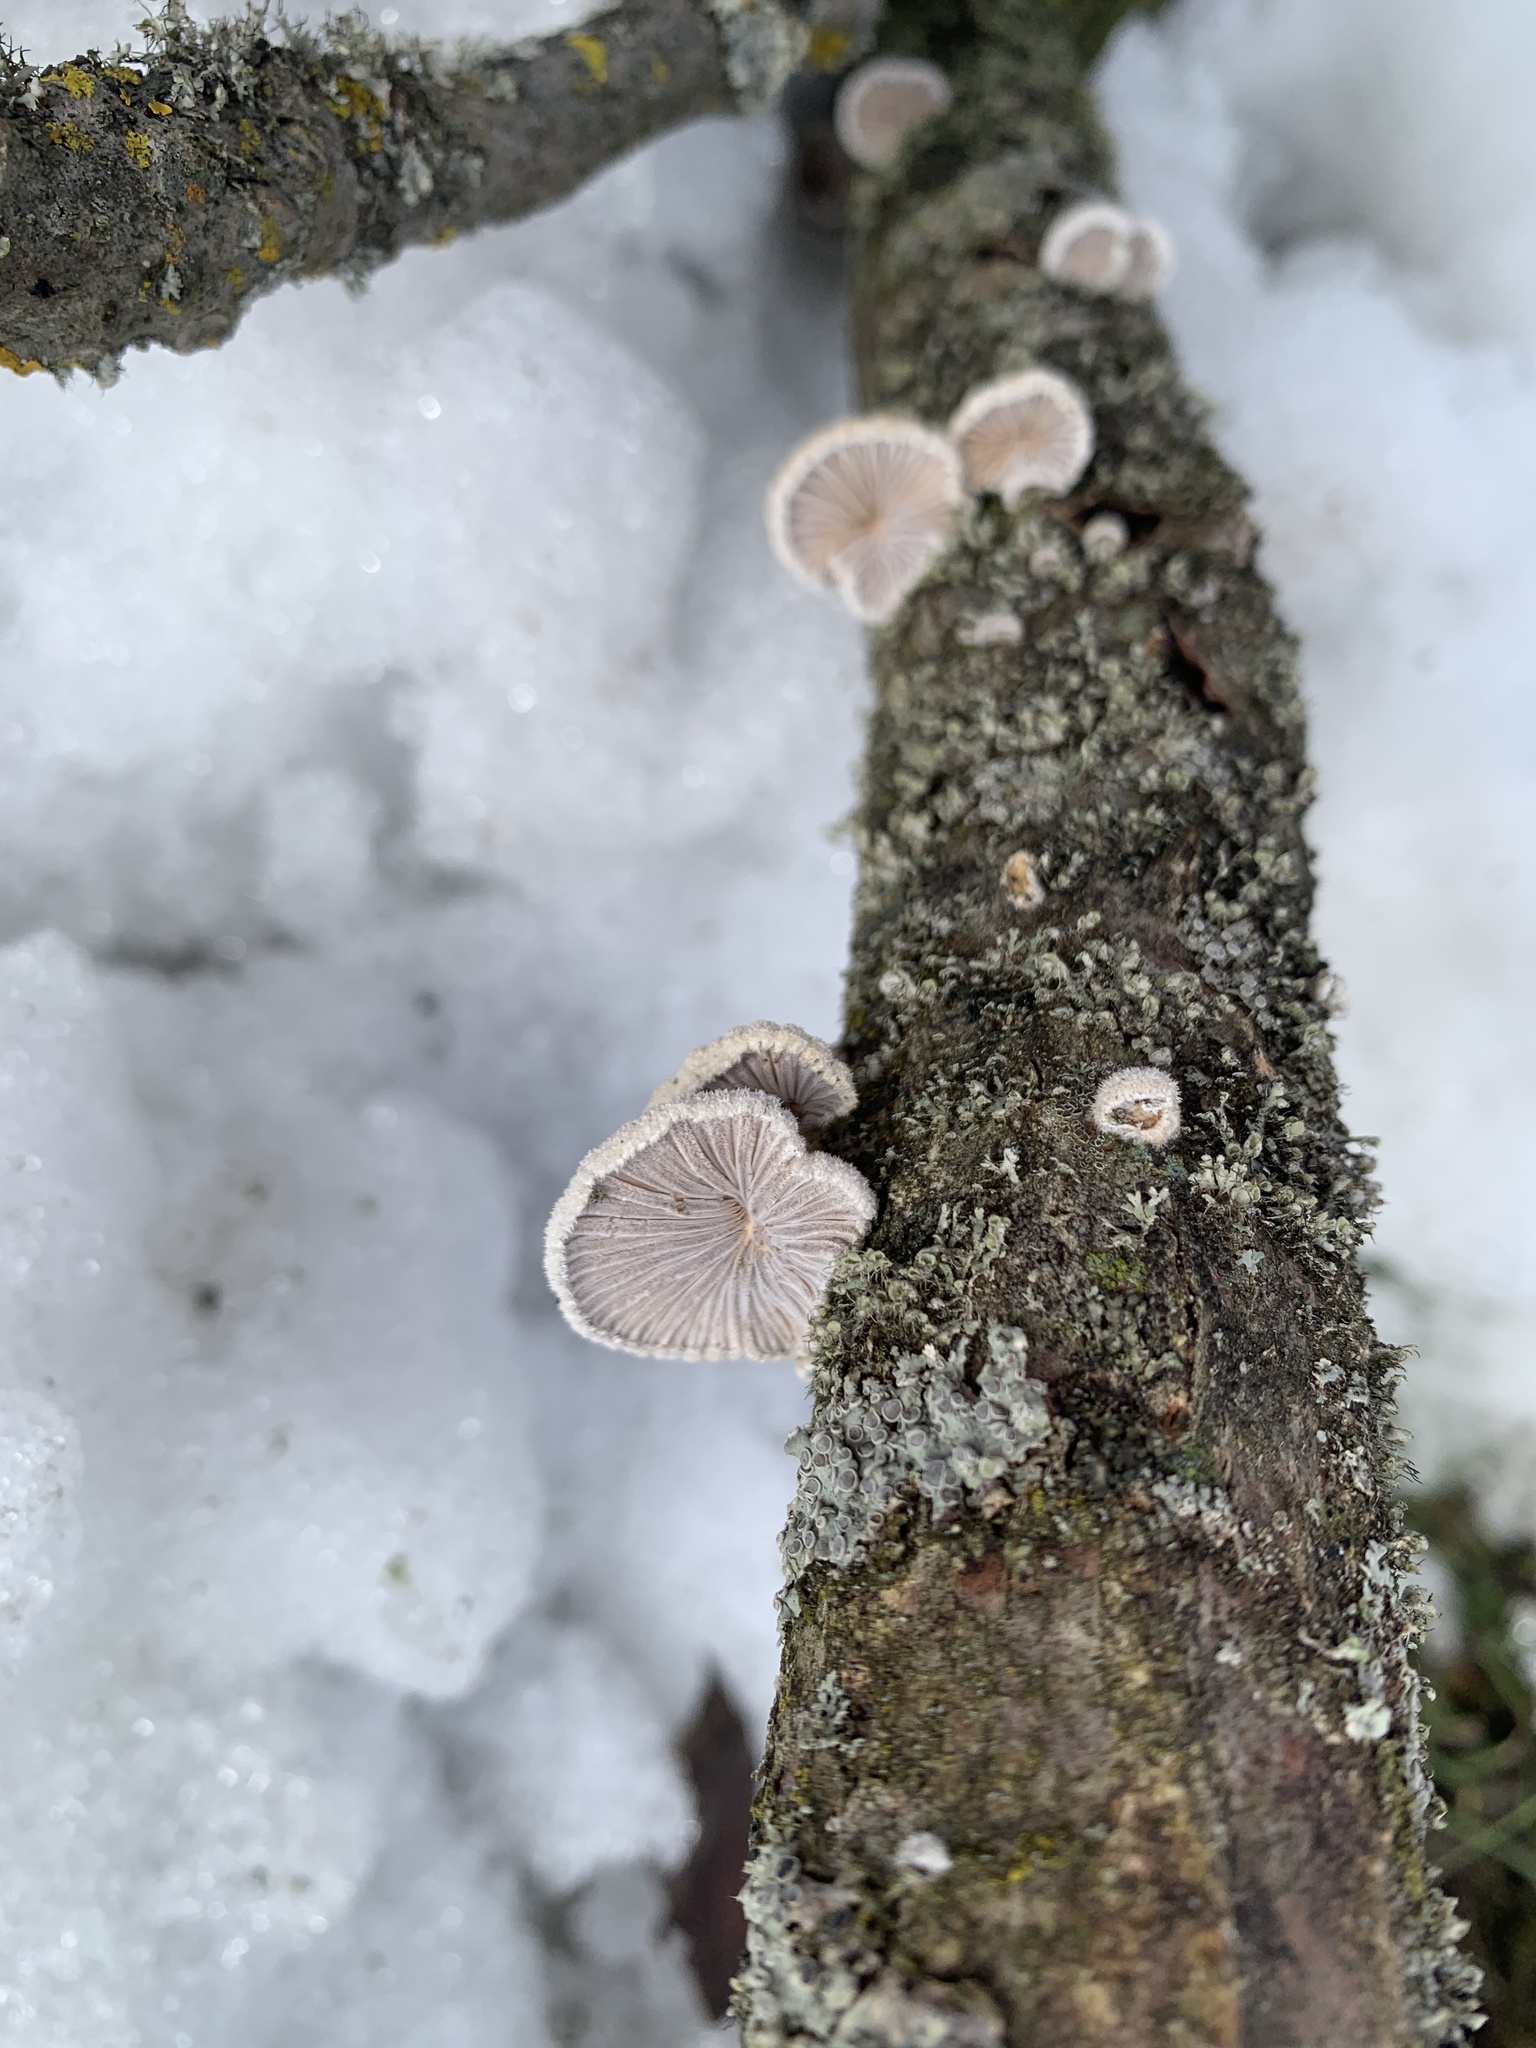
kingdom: Fungi
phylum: Basidiomycota
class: Agaricomycetes
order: Agaricales
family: Schizophyllaceae
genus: Schizophyllum
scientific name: Schizophyllum commune
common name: Common porecrust
